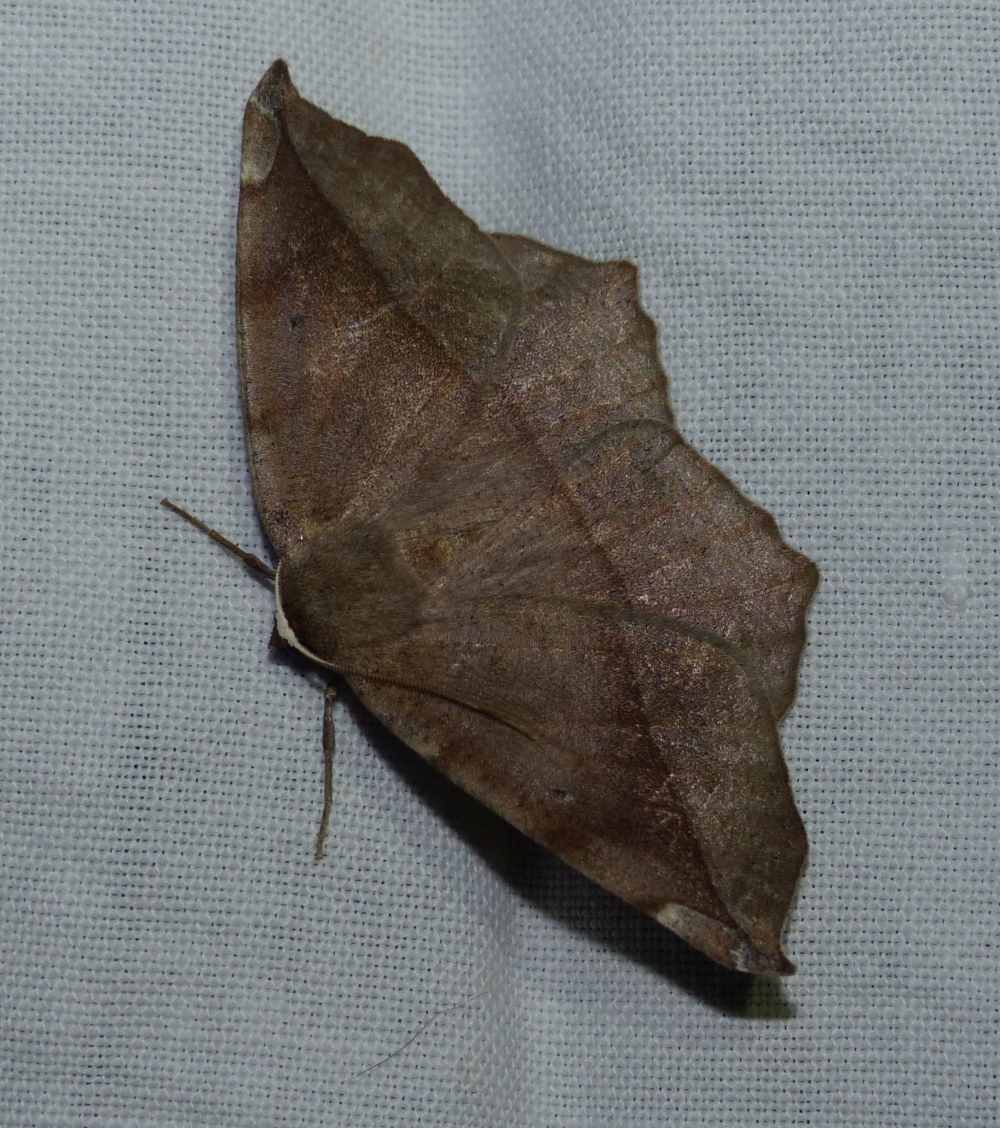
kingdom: Animalia
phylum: Arthropoda
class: Insecta
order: Lepidoptera
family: Geometridae
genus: Eutrapela
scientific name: Eutrapela clemataria
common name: Curved-toothed geometer
